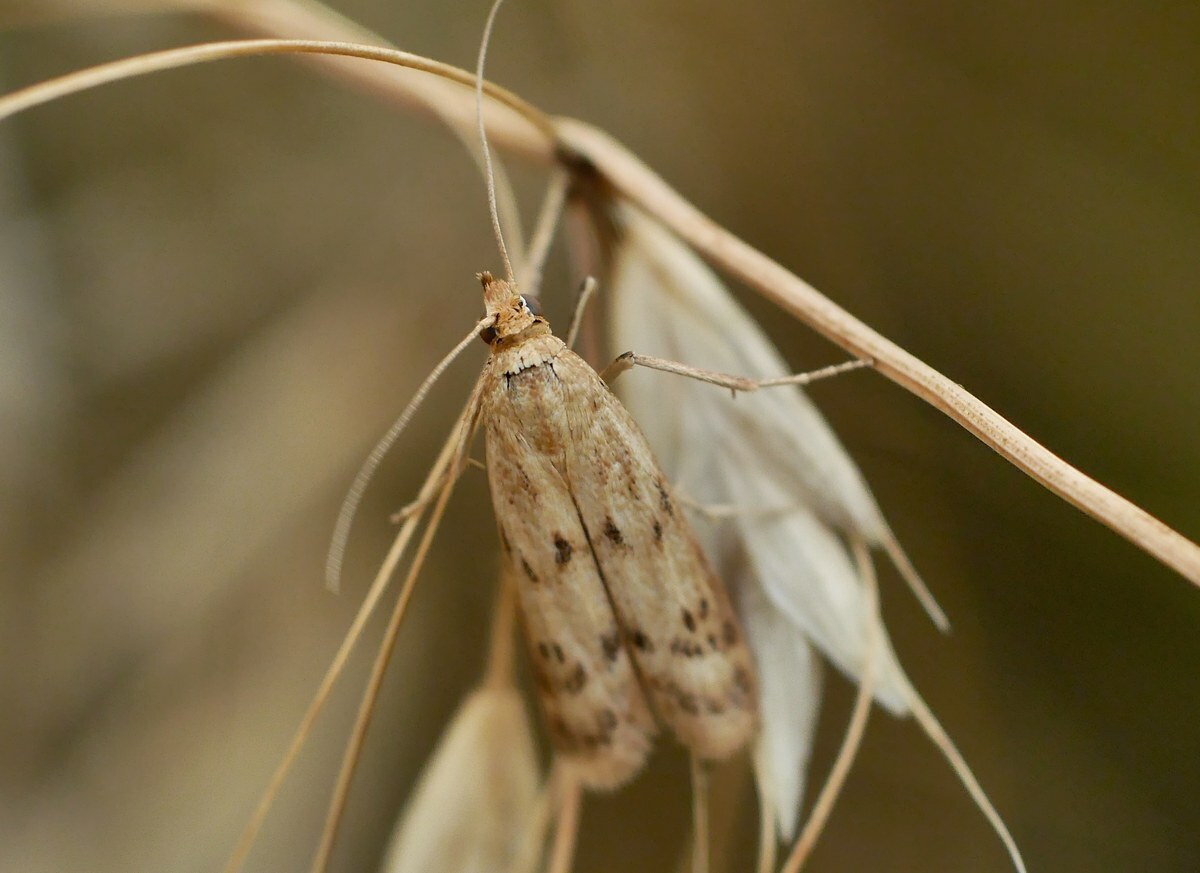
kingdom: Animalia
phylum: Arthropoda
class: Insecta
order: Lepidoptera
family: Pyralidae
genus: Homoeosoma
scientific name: Homoeosoma sinuella
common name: Twin-barred knot-horn
